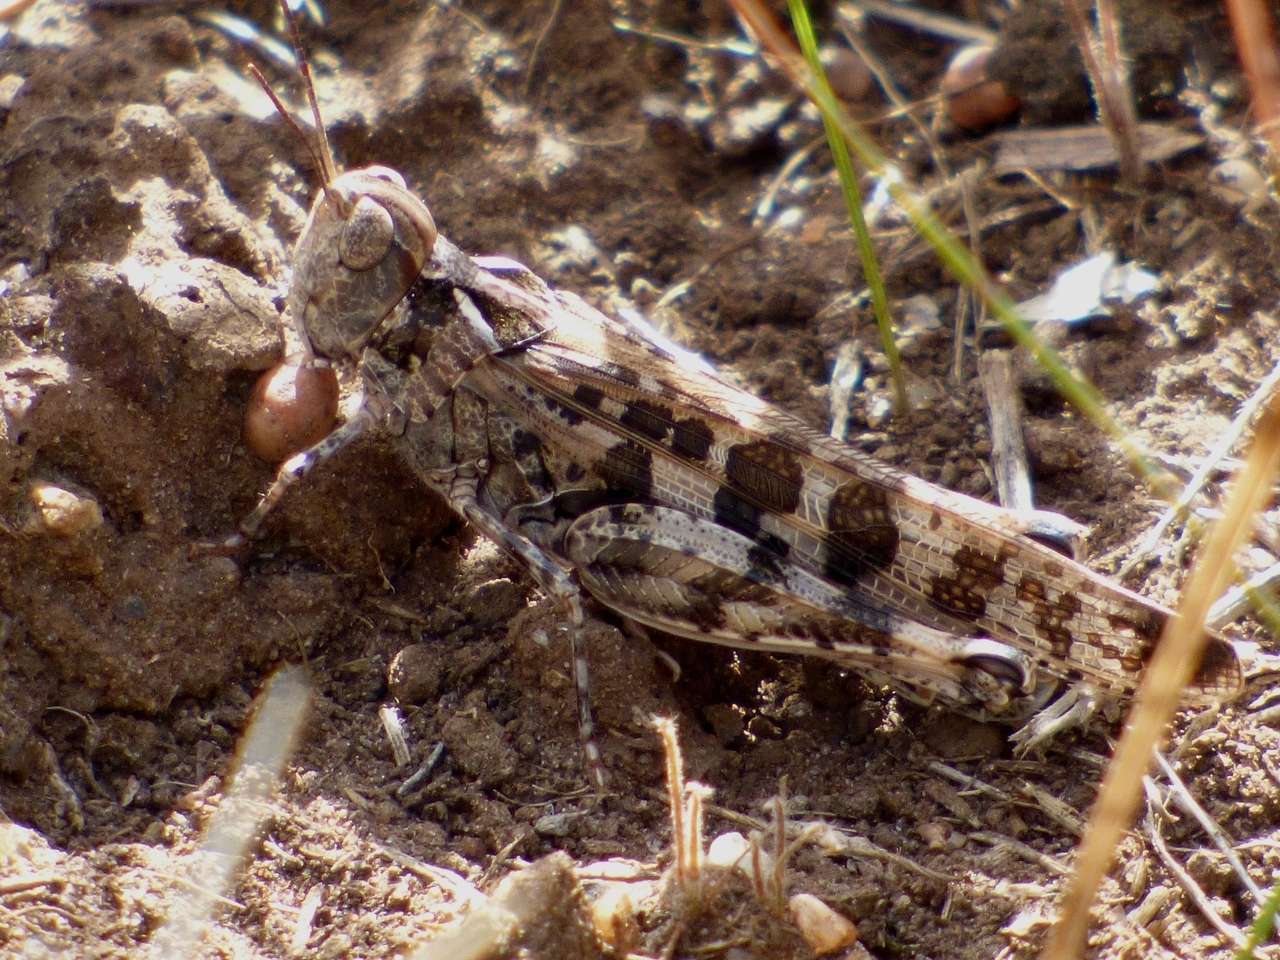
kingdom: Animalia
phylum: Arthropoda
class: Insecta
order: Orthoptera
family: Acrididae
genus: Chortoicetes
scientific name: Chortoicetes terminifera
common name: Australian plague locust
